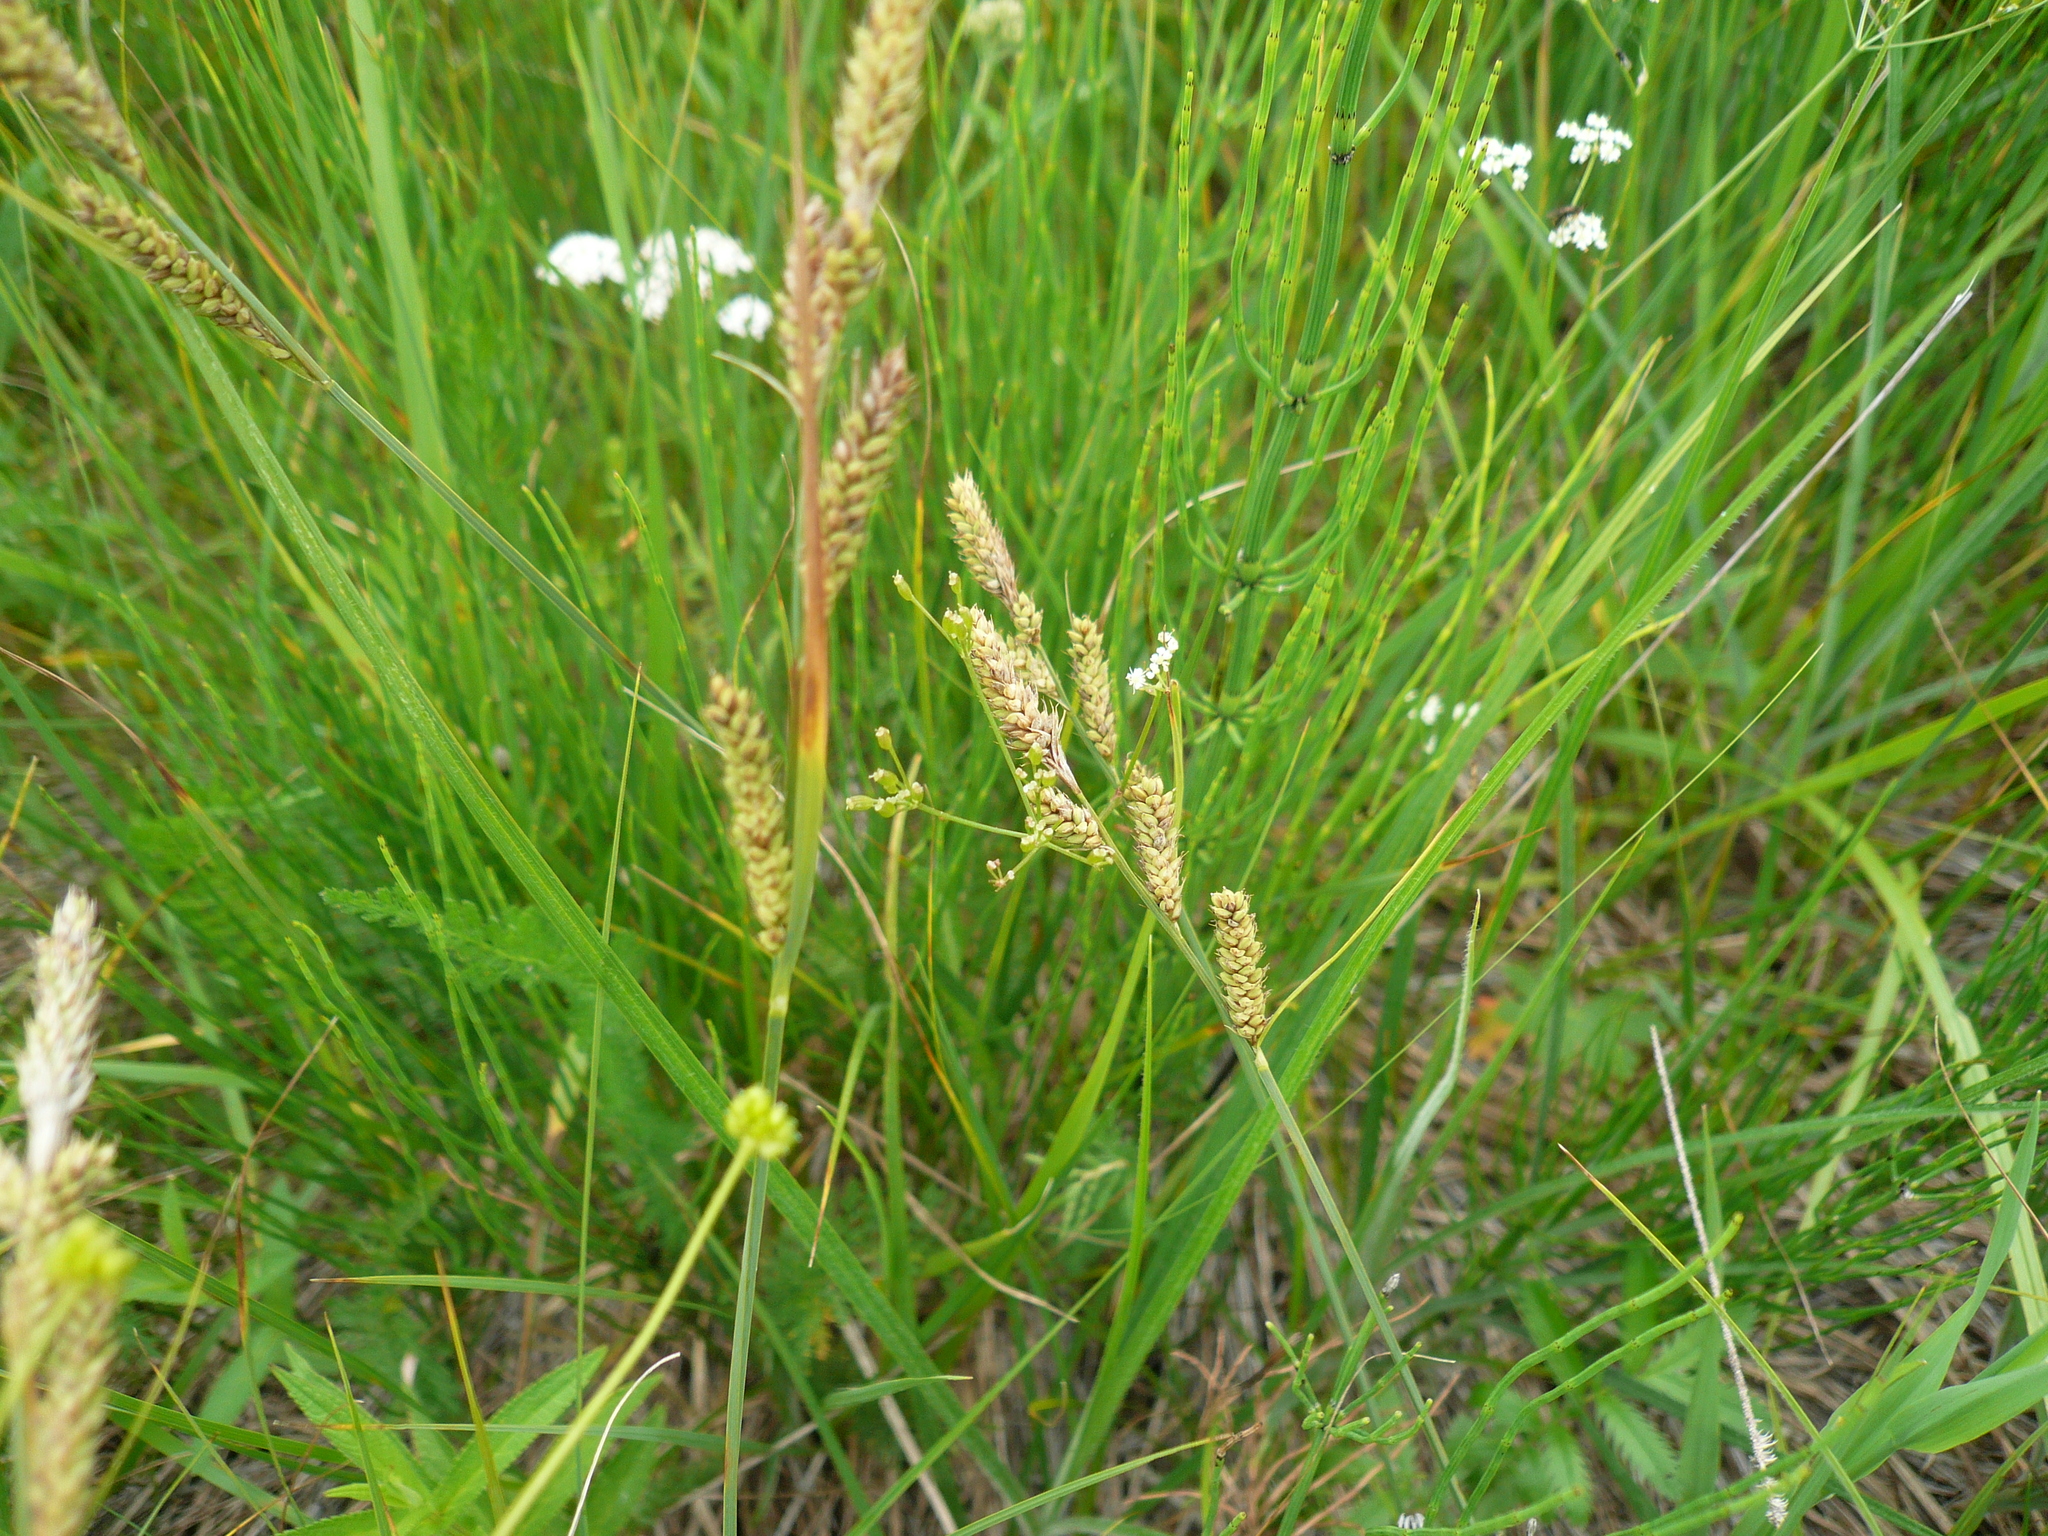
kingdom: Plantae
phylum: Tracheophyta
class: Liliopsida
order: Poales
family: Cyperaceae
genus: Carex
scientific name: Carex hartmaniorum
